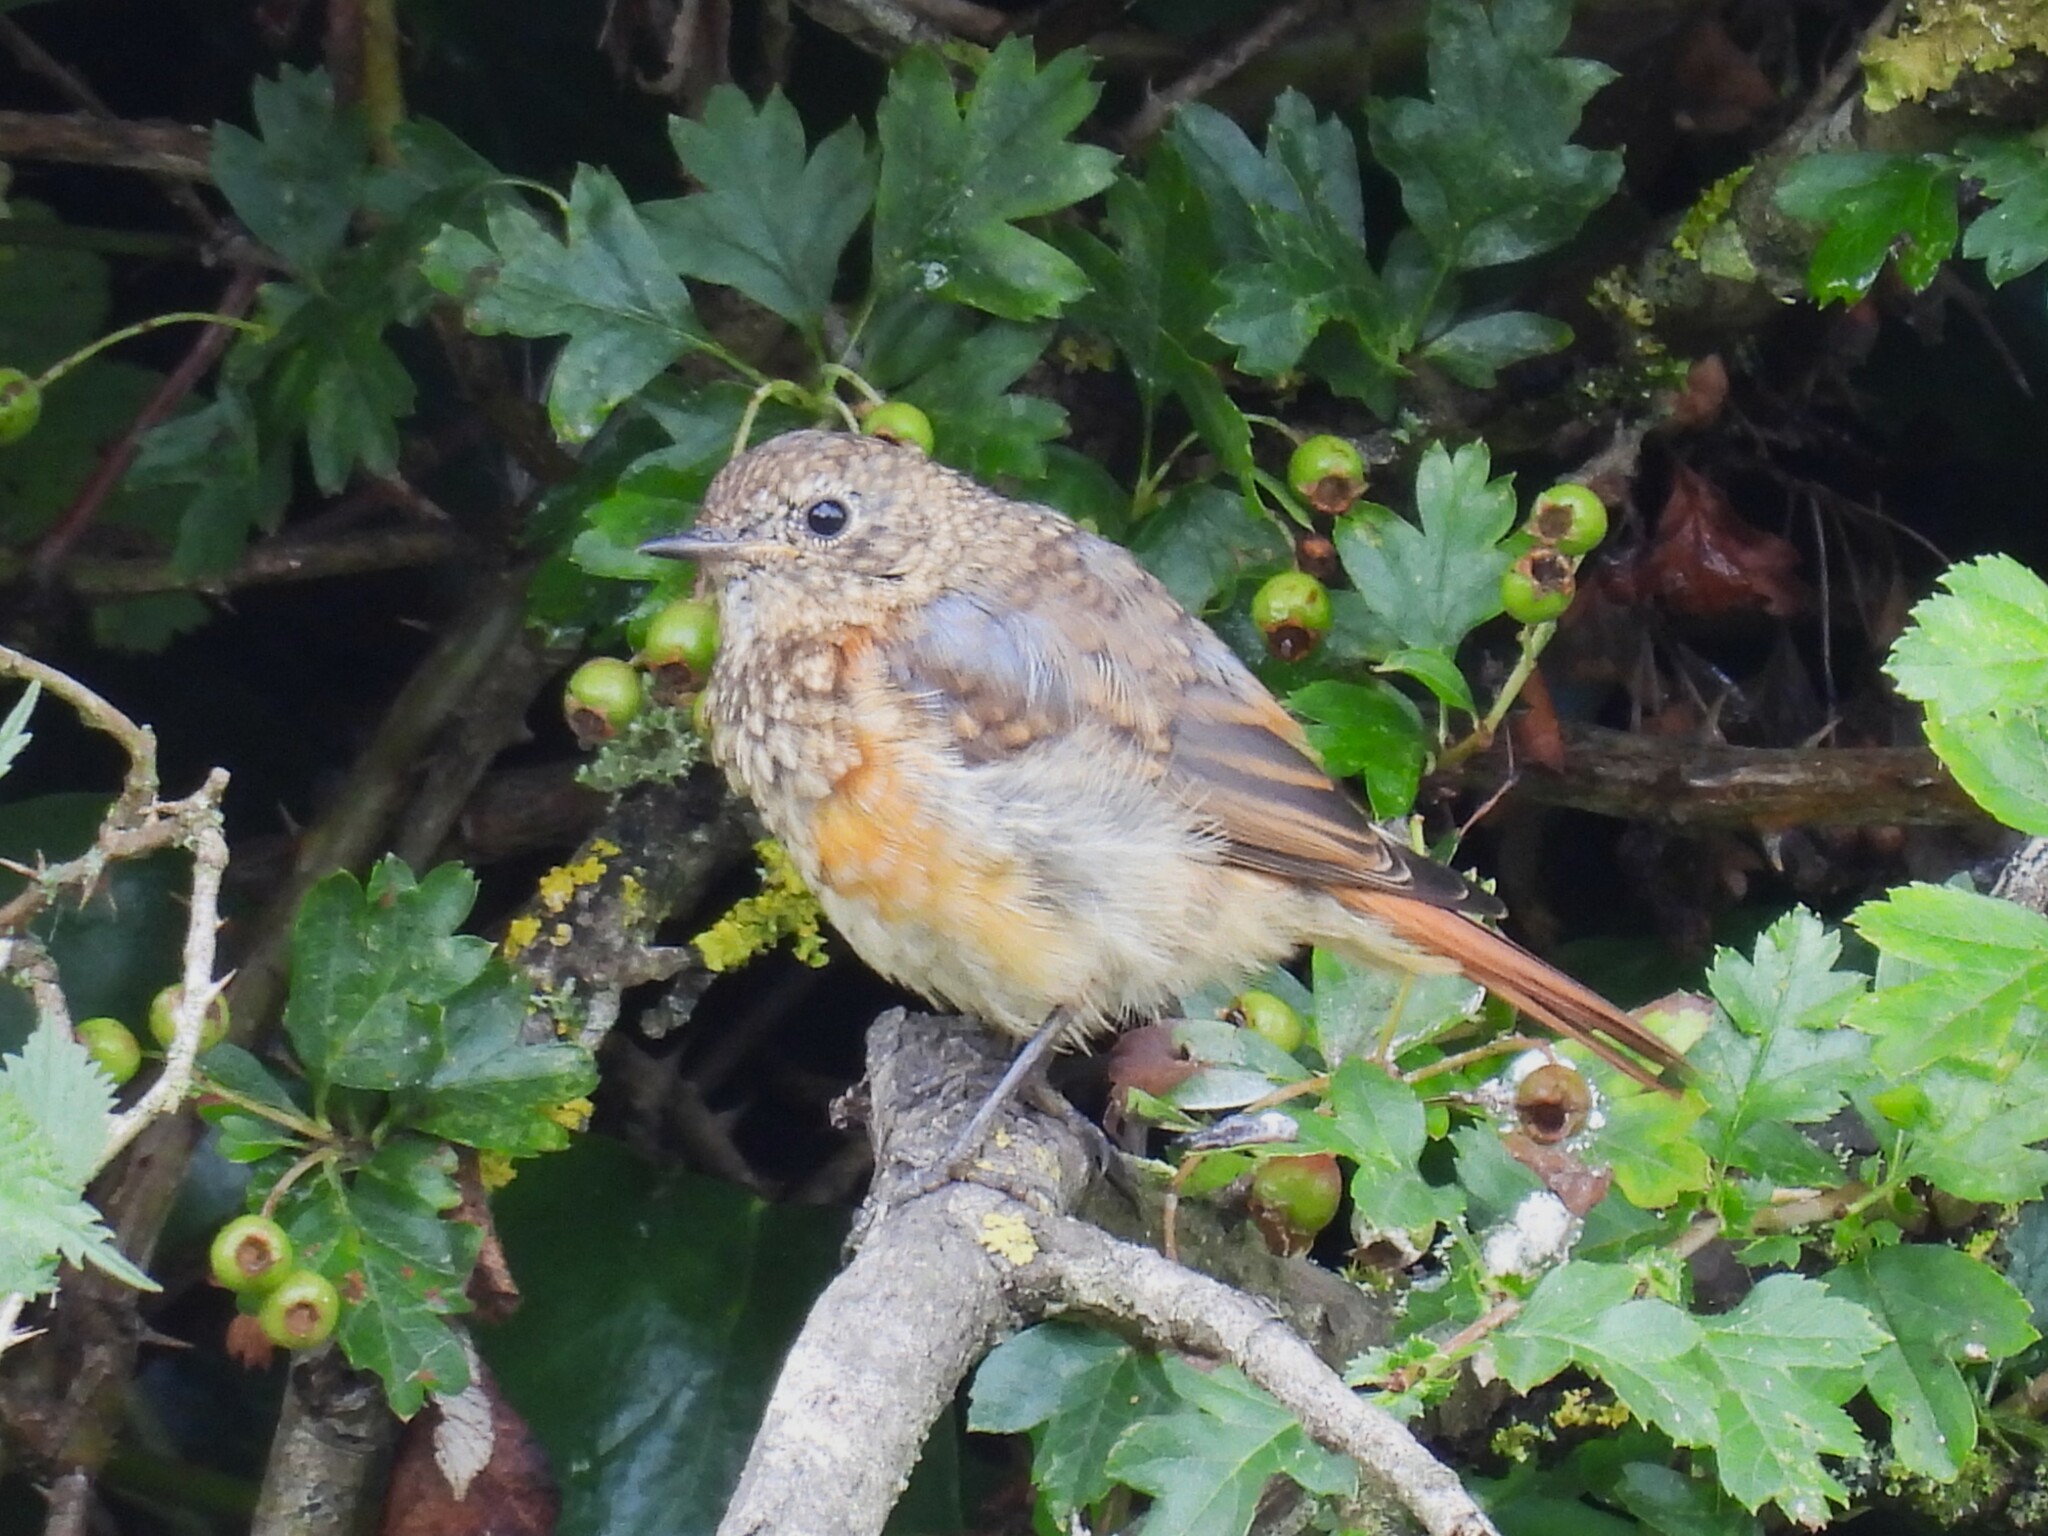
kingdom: Animalia
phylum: Chordata
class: Aves
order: Passeriformes
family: Muscicapidae
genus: Phoenicurus
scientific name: Phoenicurus phoenicurus
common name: Common redstart
